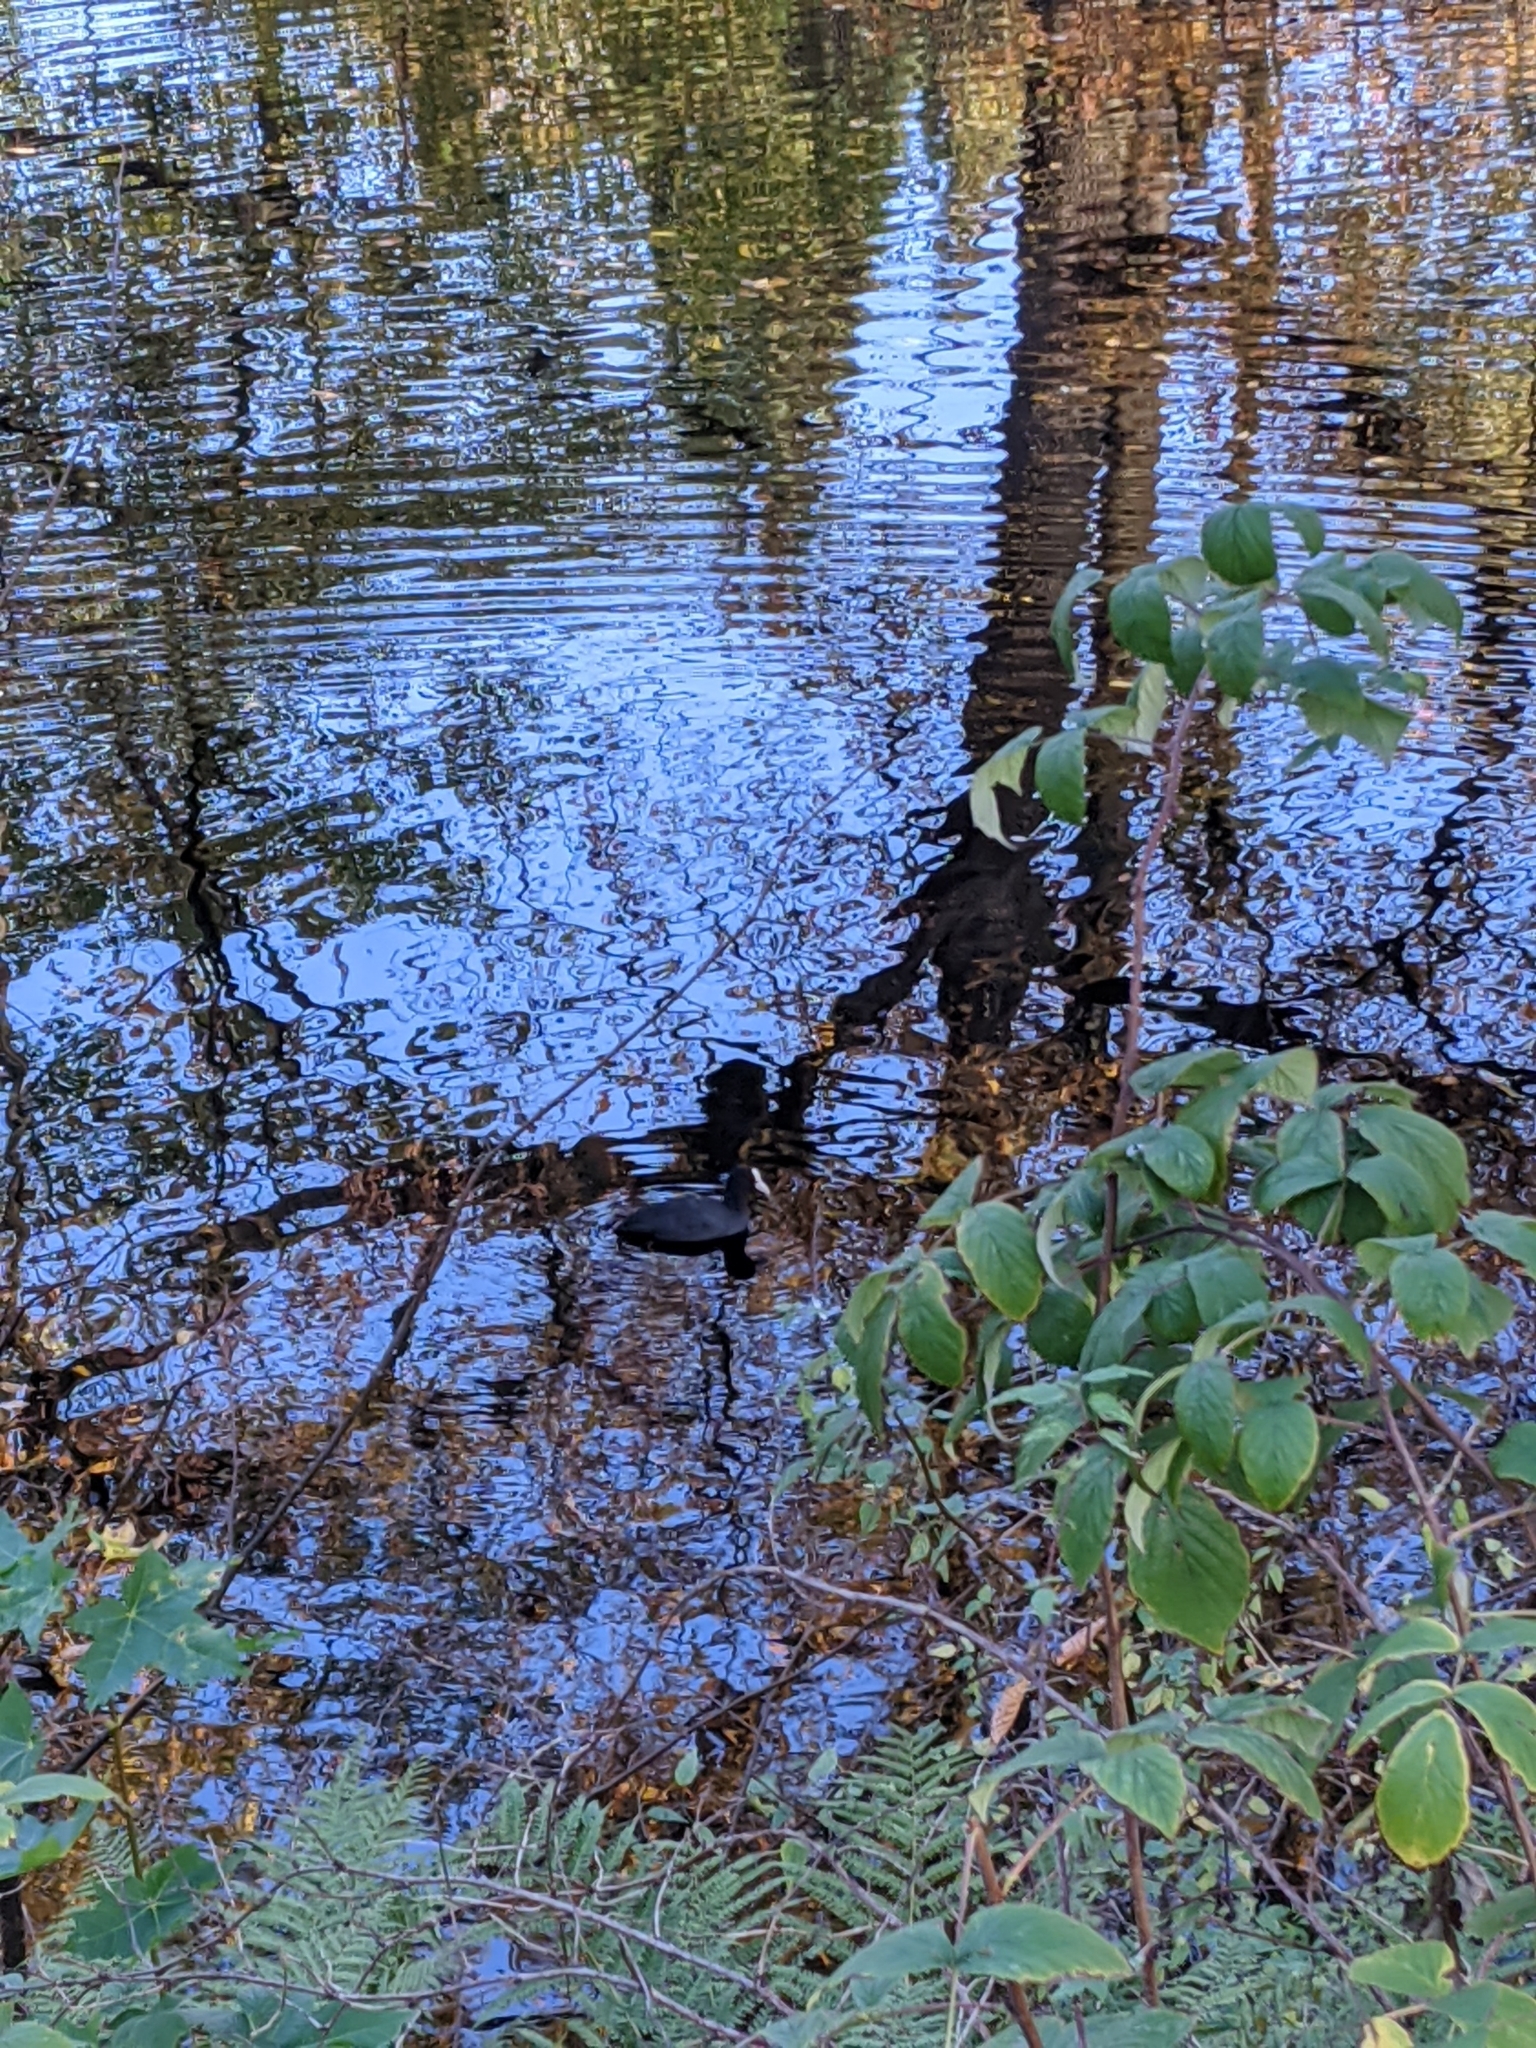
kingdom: Animalia
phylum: Chordata
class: Aves
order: Gruiformes
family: Rallidae
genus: Fulica
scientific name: Fulica atra
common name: Eurasian coot
